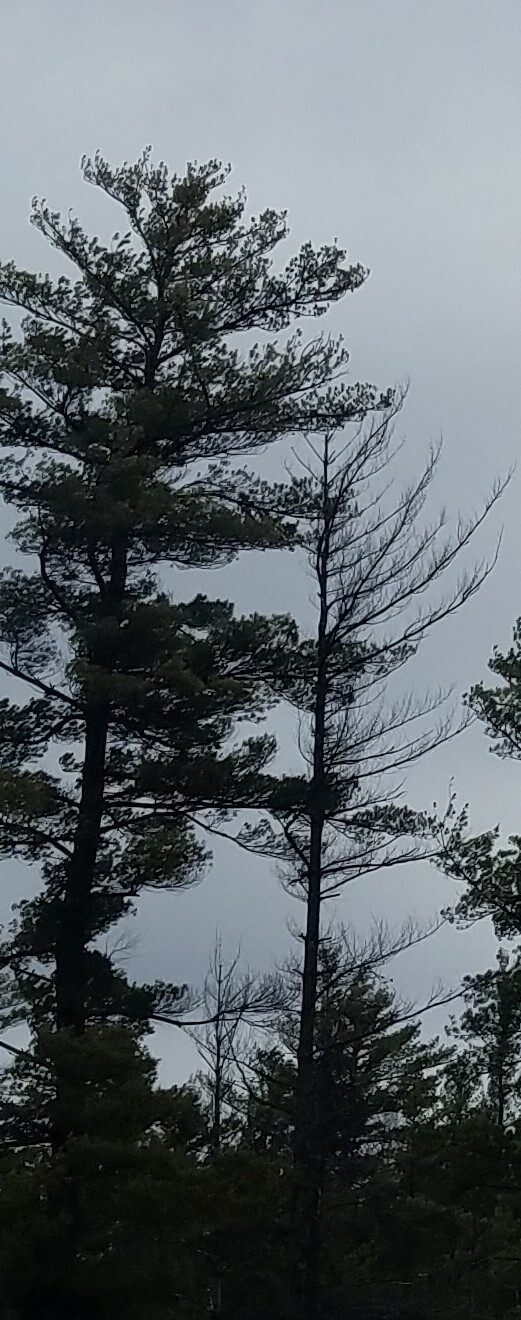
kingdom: Plantae
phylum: Tracheophyta
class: Pinopsida
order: Pinales
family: Pinaceae
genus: Pinus
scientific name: Pinus strobus
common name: Weymouth pine
